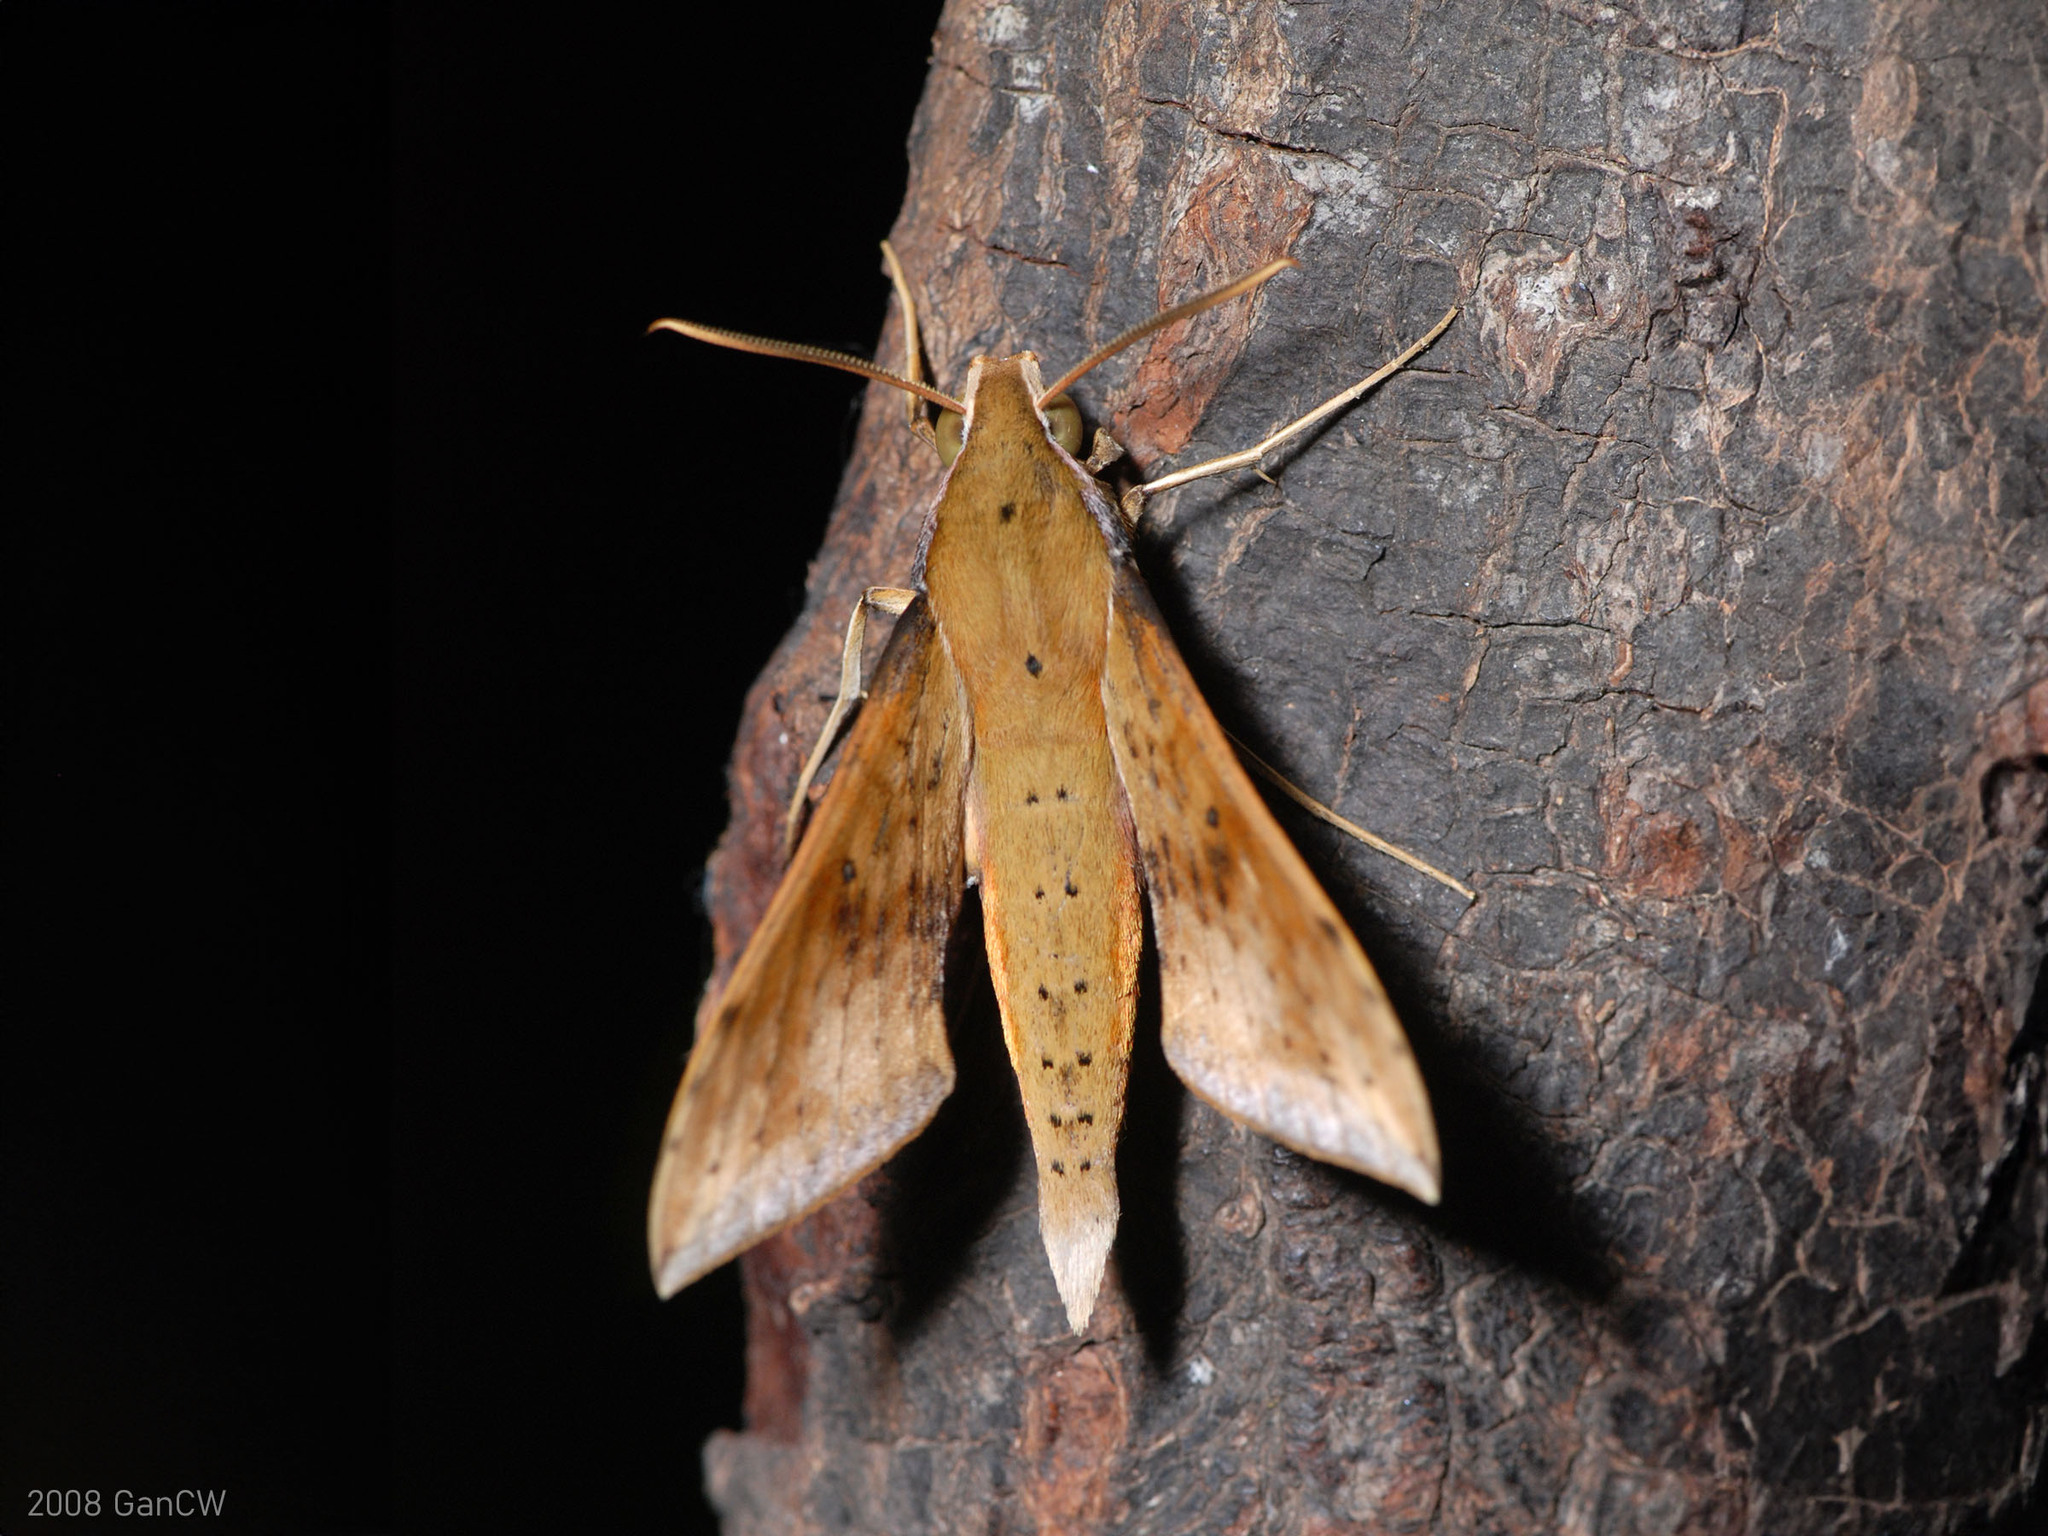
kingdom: Animalia
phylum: Arthropoda
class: Insecta
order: Lepidoptera
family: Sphingidae
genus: Rhagastis
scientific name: Rhagastis castor
